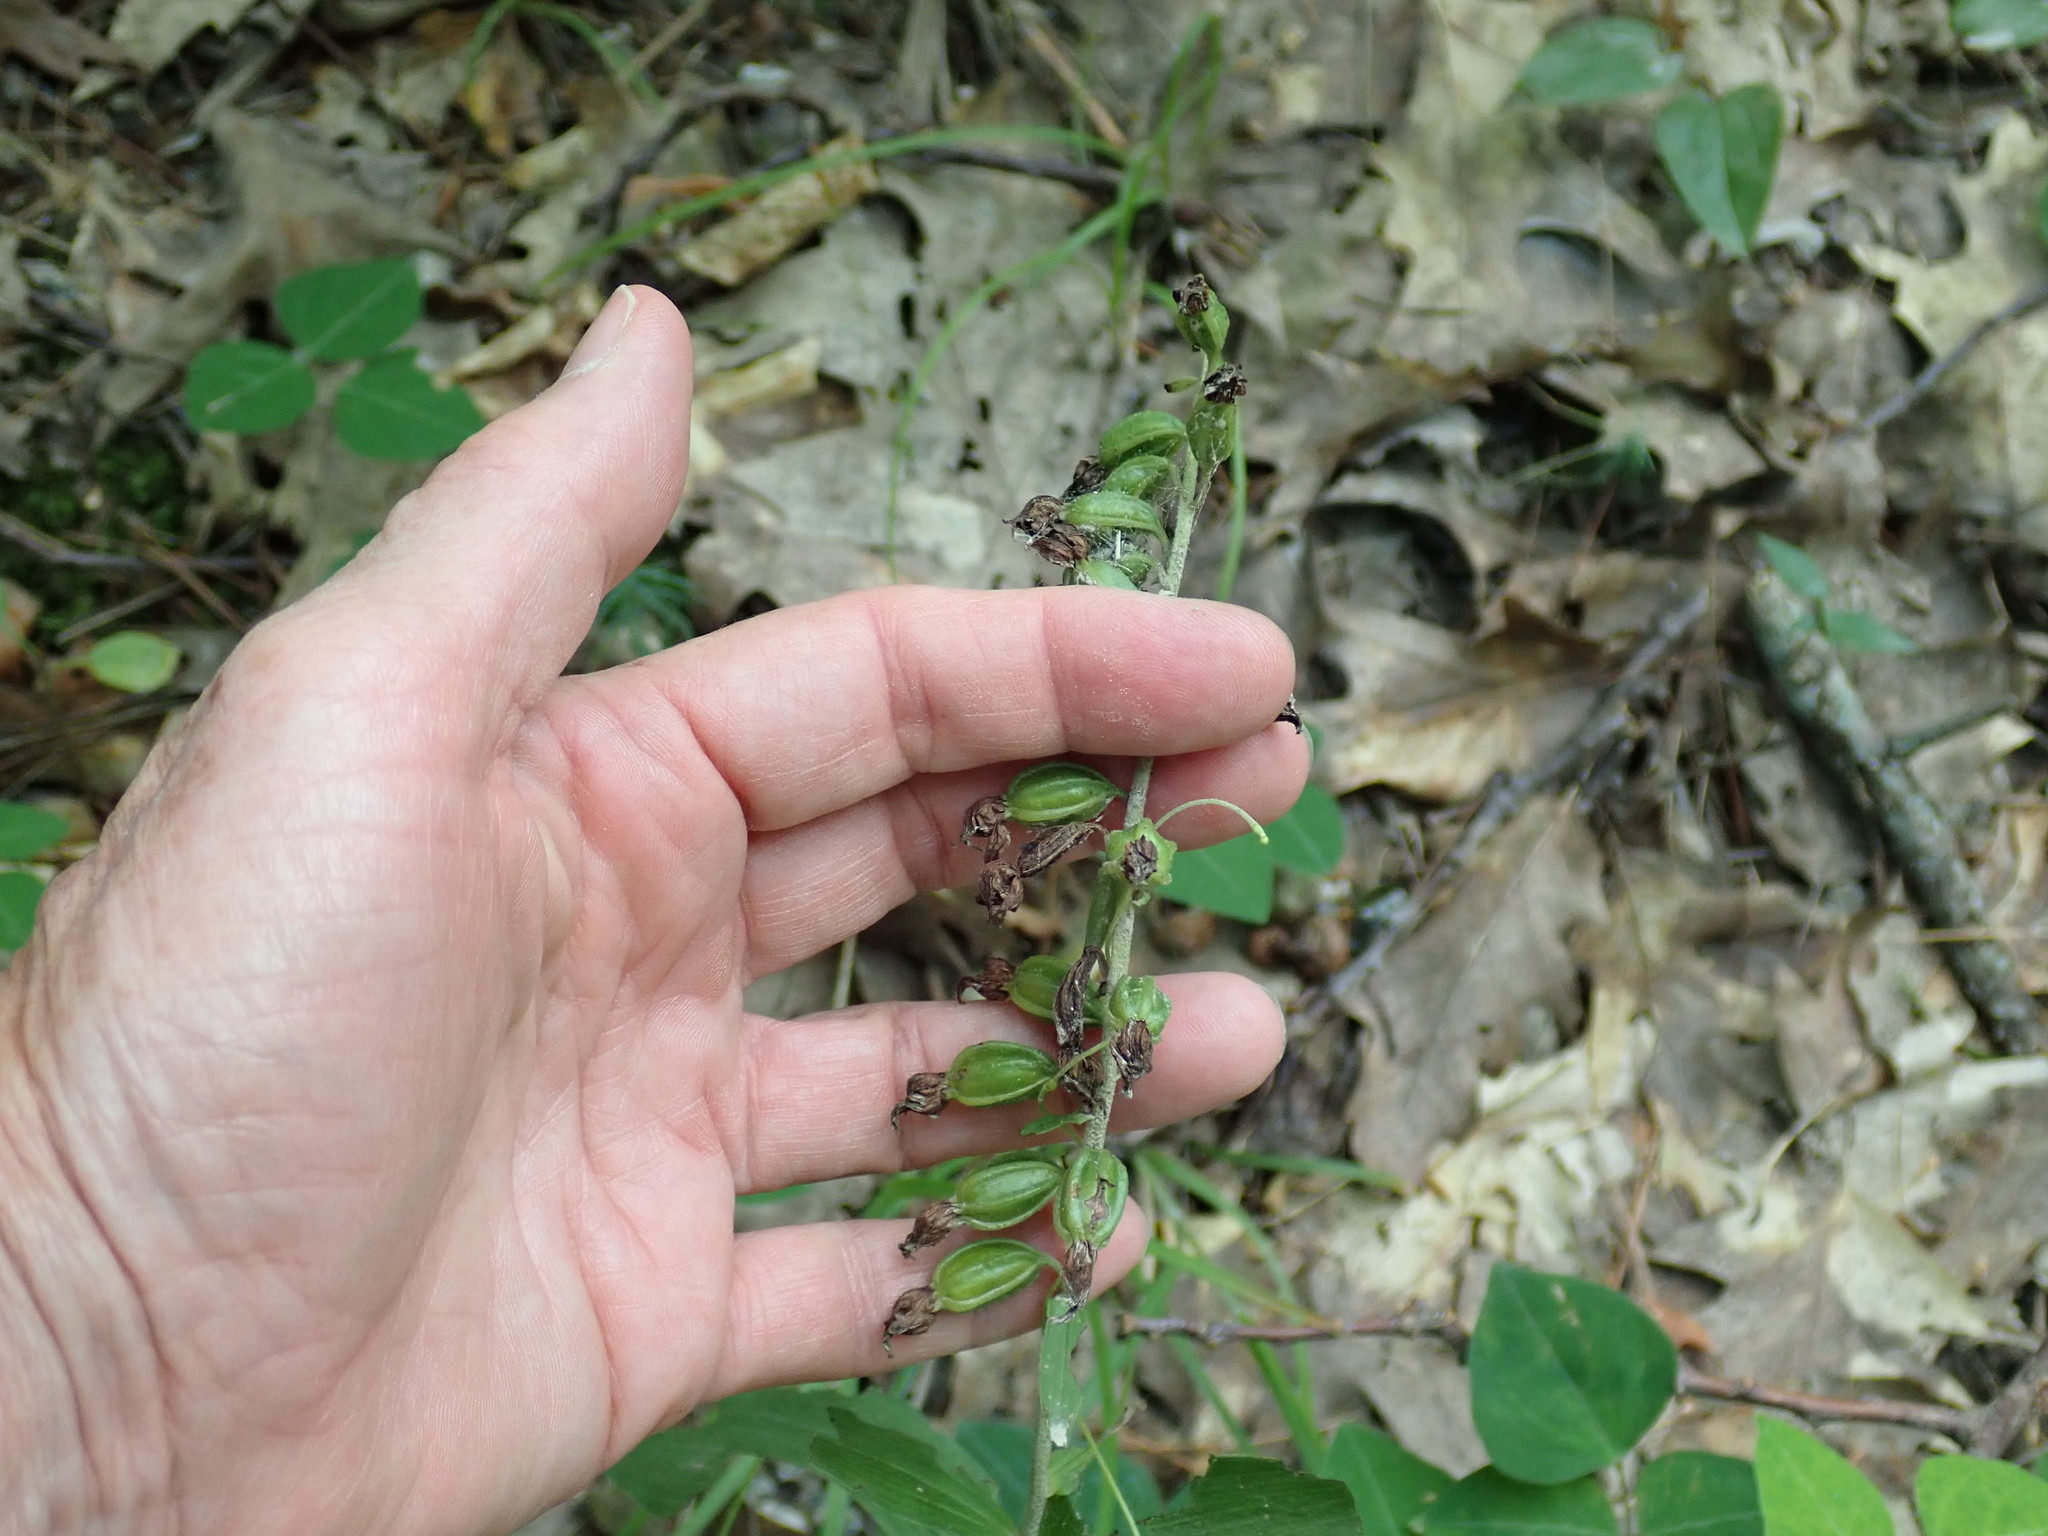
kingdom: Plantae
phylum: Tracheophyta
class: Liliopsida
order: Asparagales
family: Orchidaceae
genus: Epipactis
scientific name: Epipactis helleborine
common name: Broad-leaved helleborine
